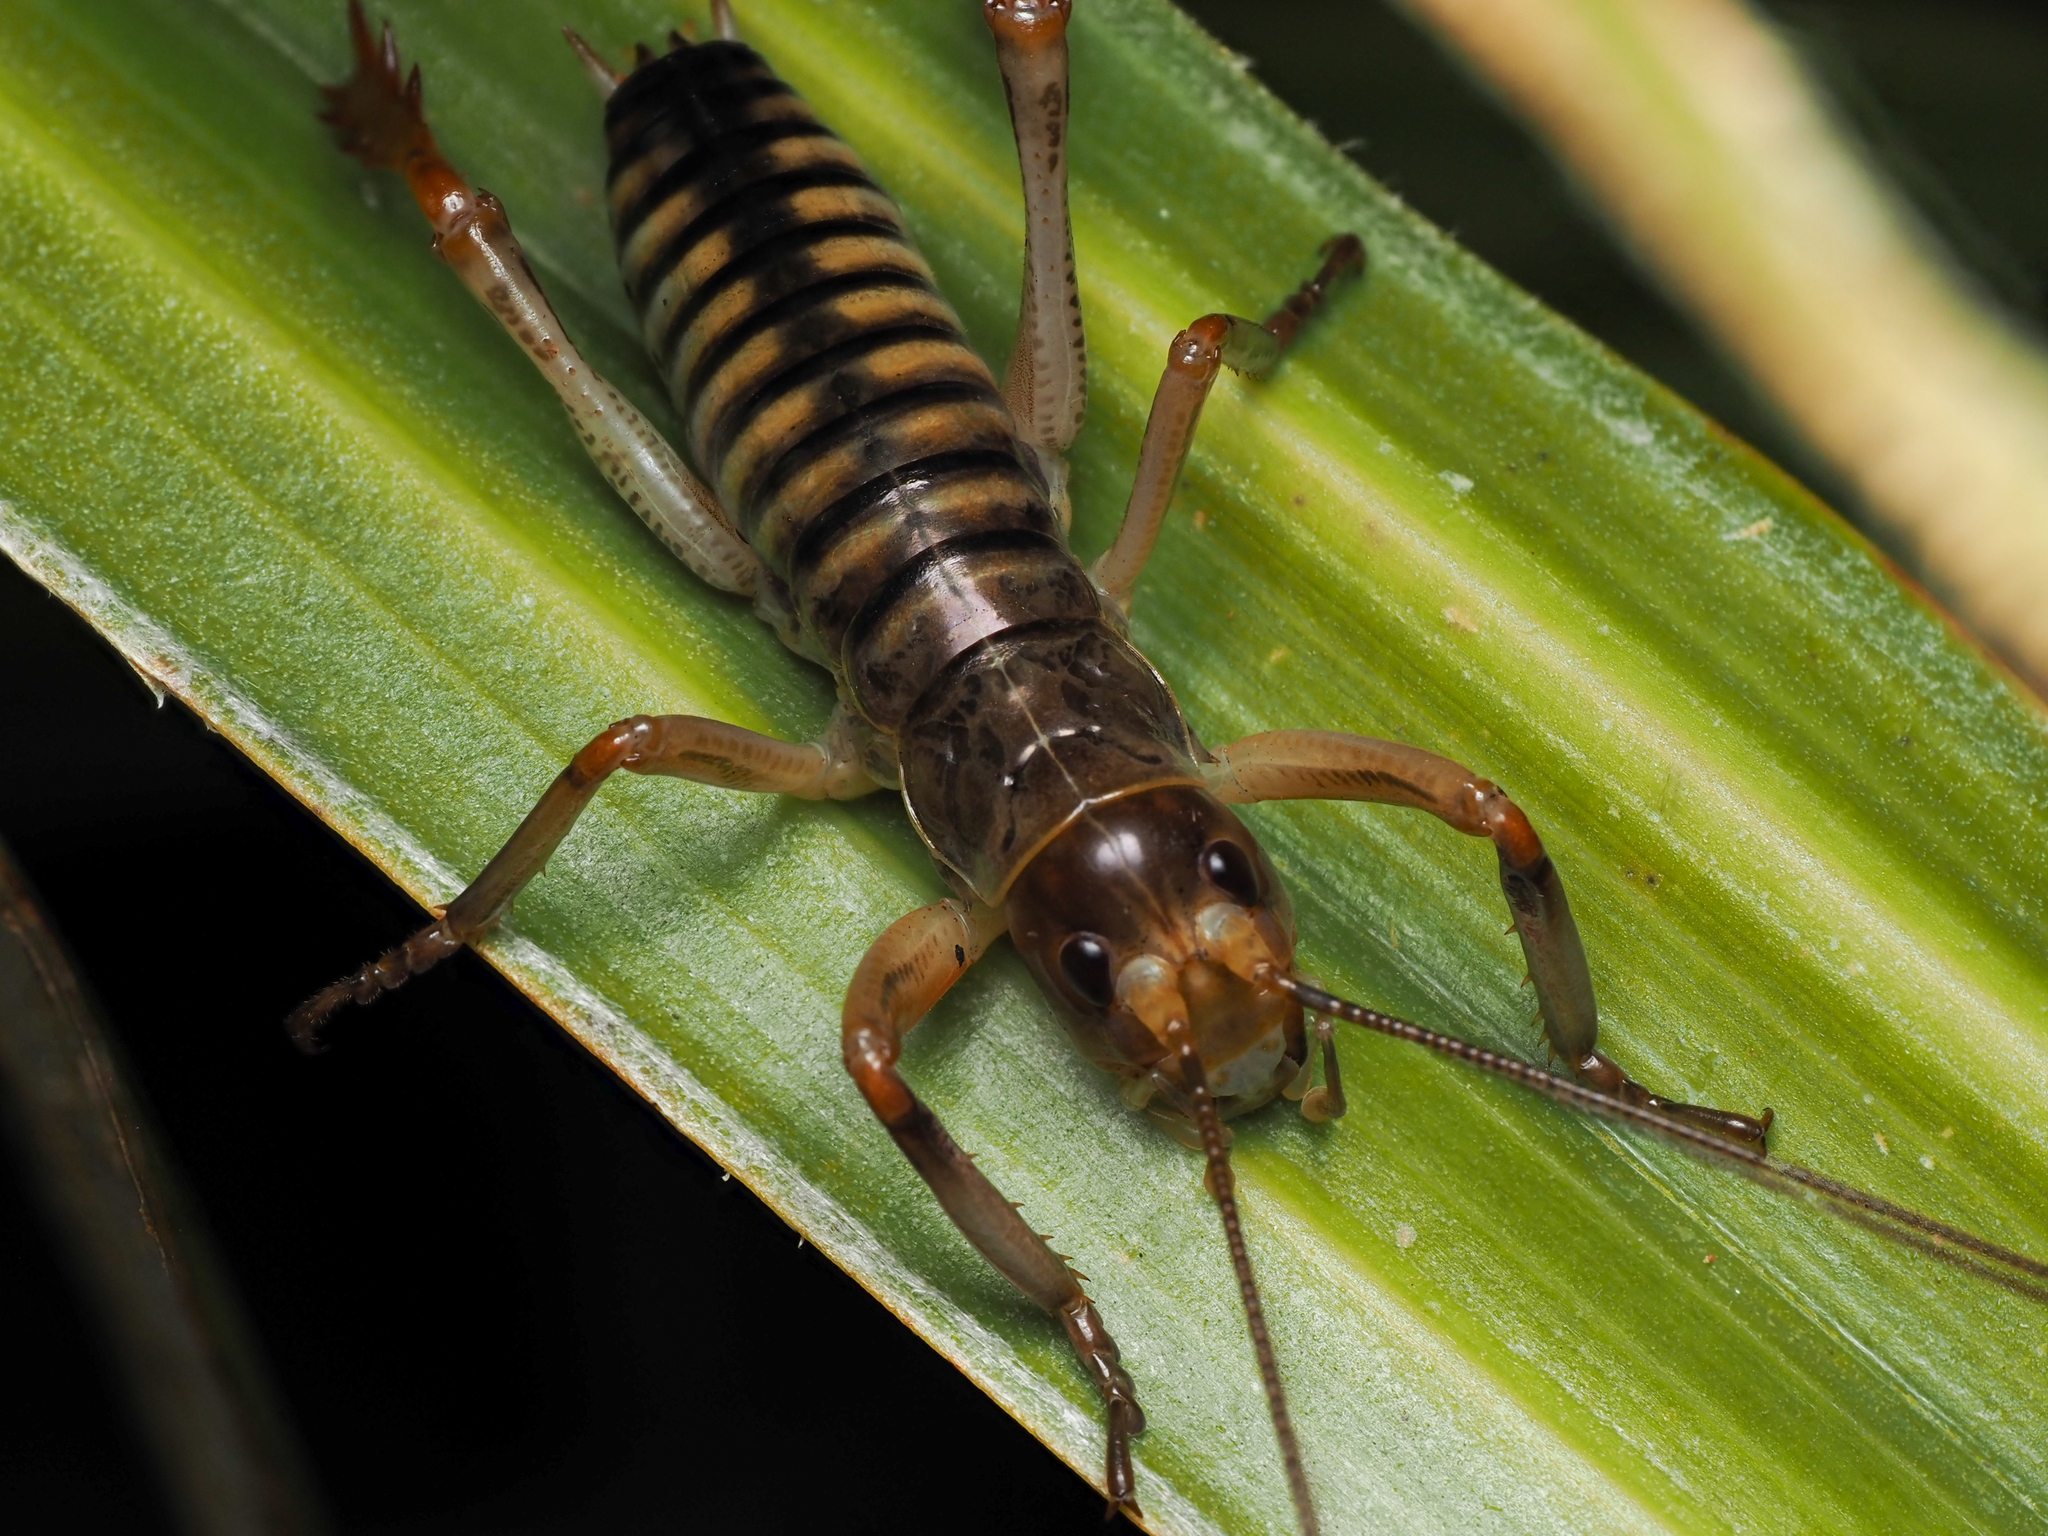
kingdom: Animalia
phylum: Arthropoda
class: Insecta
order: Orthoptera
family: Anostostomatidae
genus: Hemideina
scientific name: Hemideina crassidens
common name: Wellington tree weta
